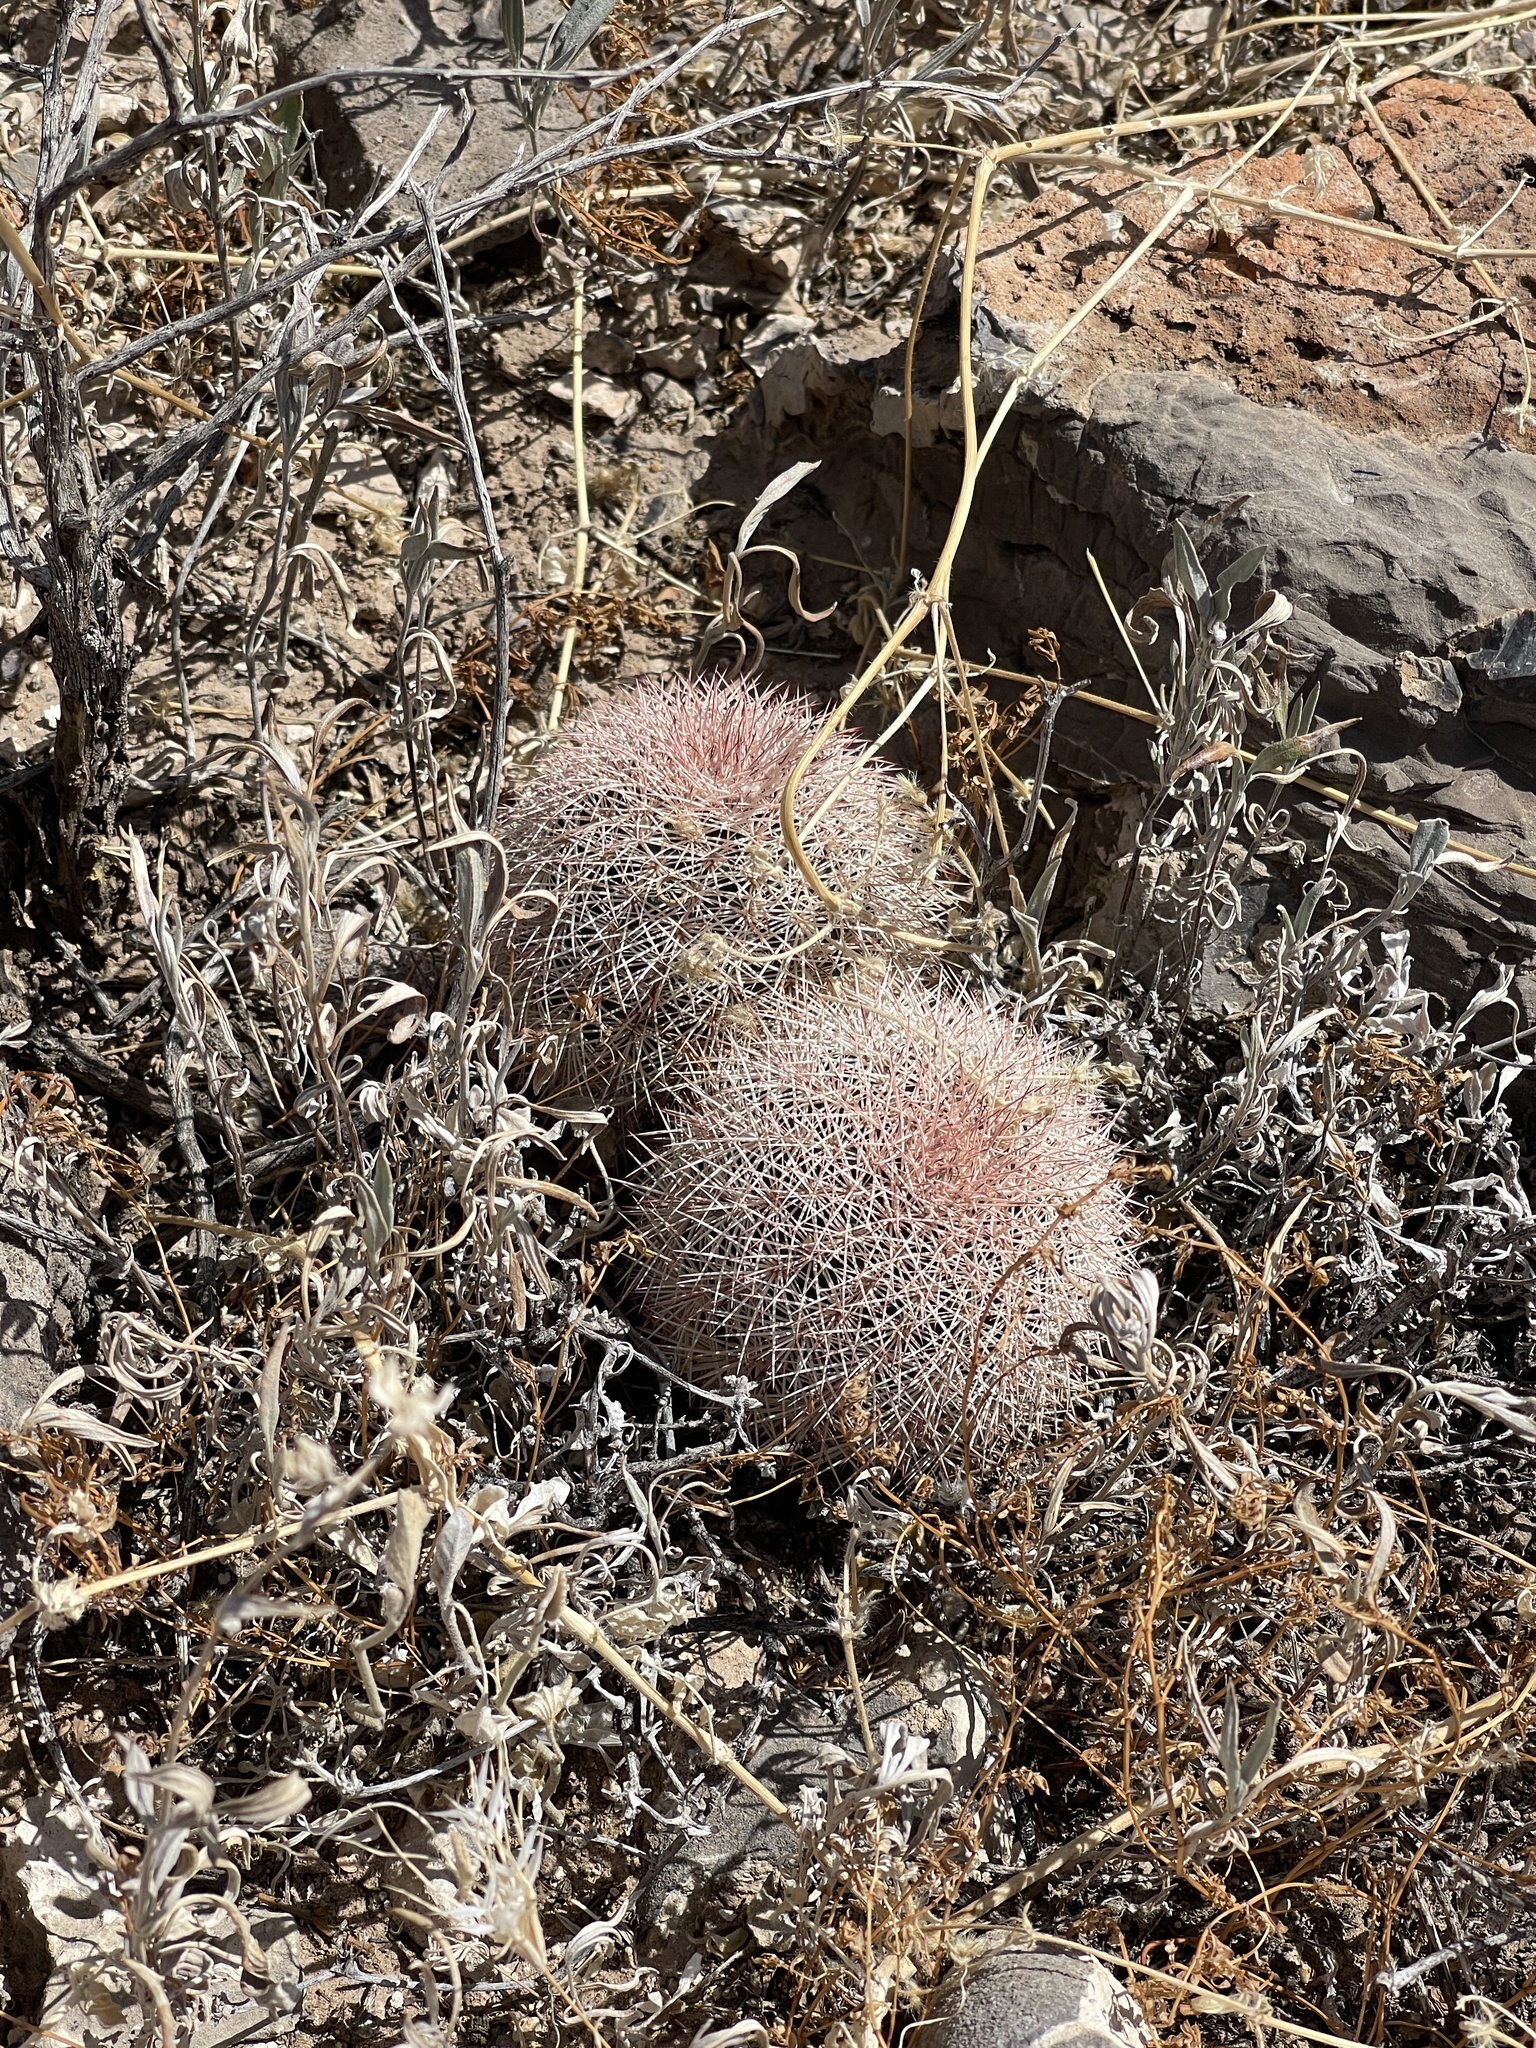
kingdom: Plantae
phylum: Tracheophyta
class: Magnoliopsida
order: Caryophyllales
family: Cactaceae
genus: Echinocereus
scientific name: Echinocereus dasyacanthus
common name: Spiny hedgehog cactus
